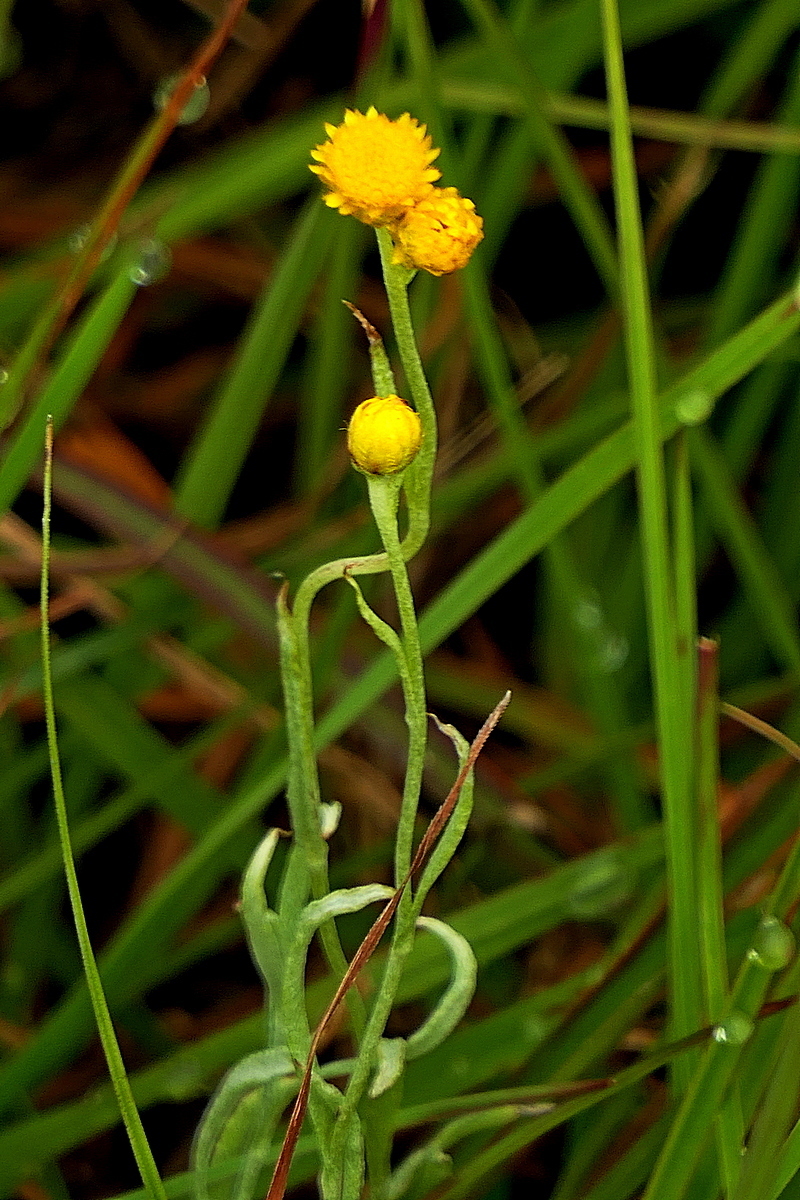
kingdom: Plantae
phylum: Tracheophyta
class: Magnoliopsida
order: Asterales
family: Asteraceae
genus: Chrysocephalum
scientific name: Chrysocephalum apiculatum
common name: Common everlasting
